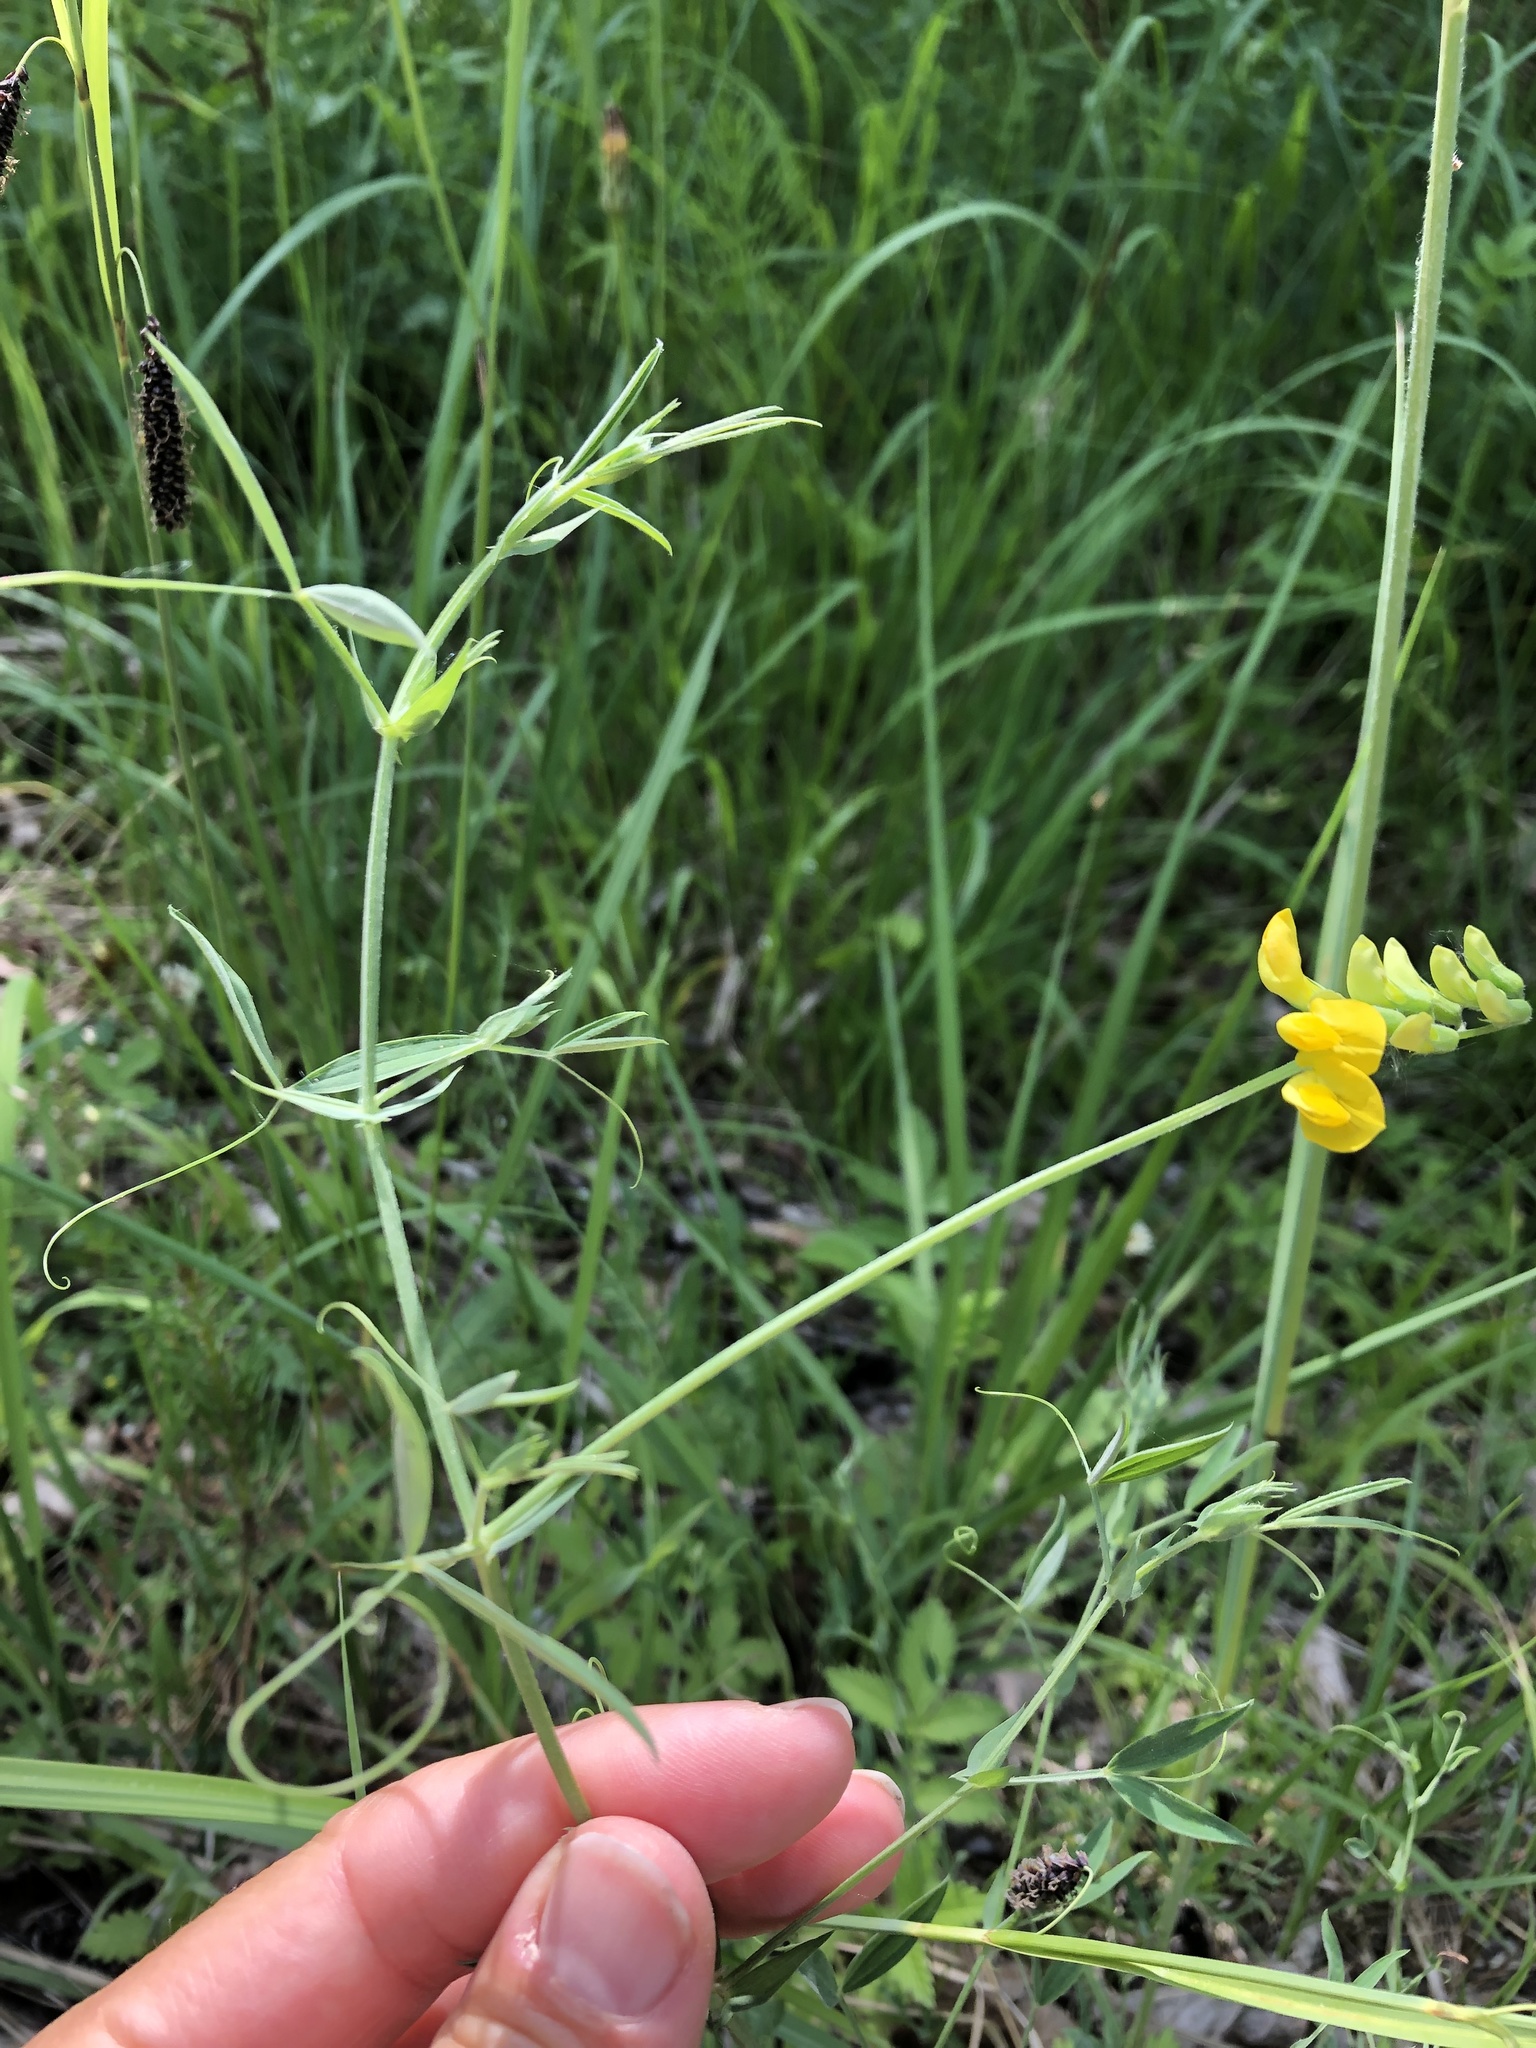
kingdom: Plantae
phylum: Tracheophyta
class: Magnoliopsida
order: Fabales
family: Fabaceae
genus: Lathyrus
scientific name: Lathyrus pratensis
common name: Meadow vetchling
